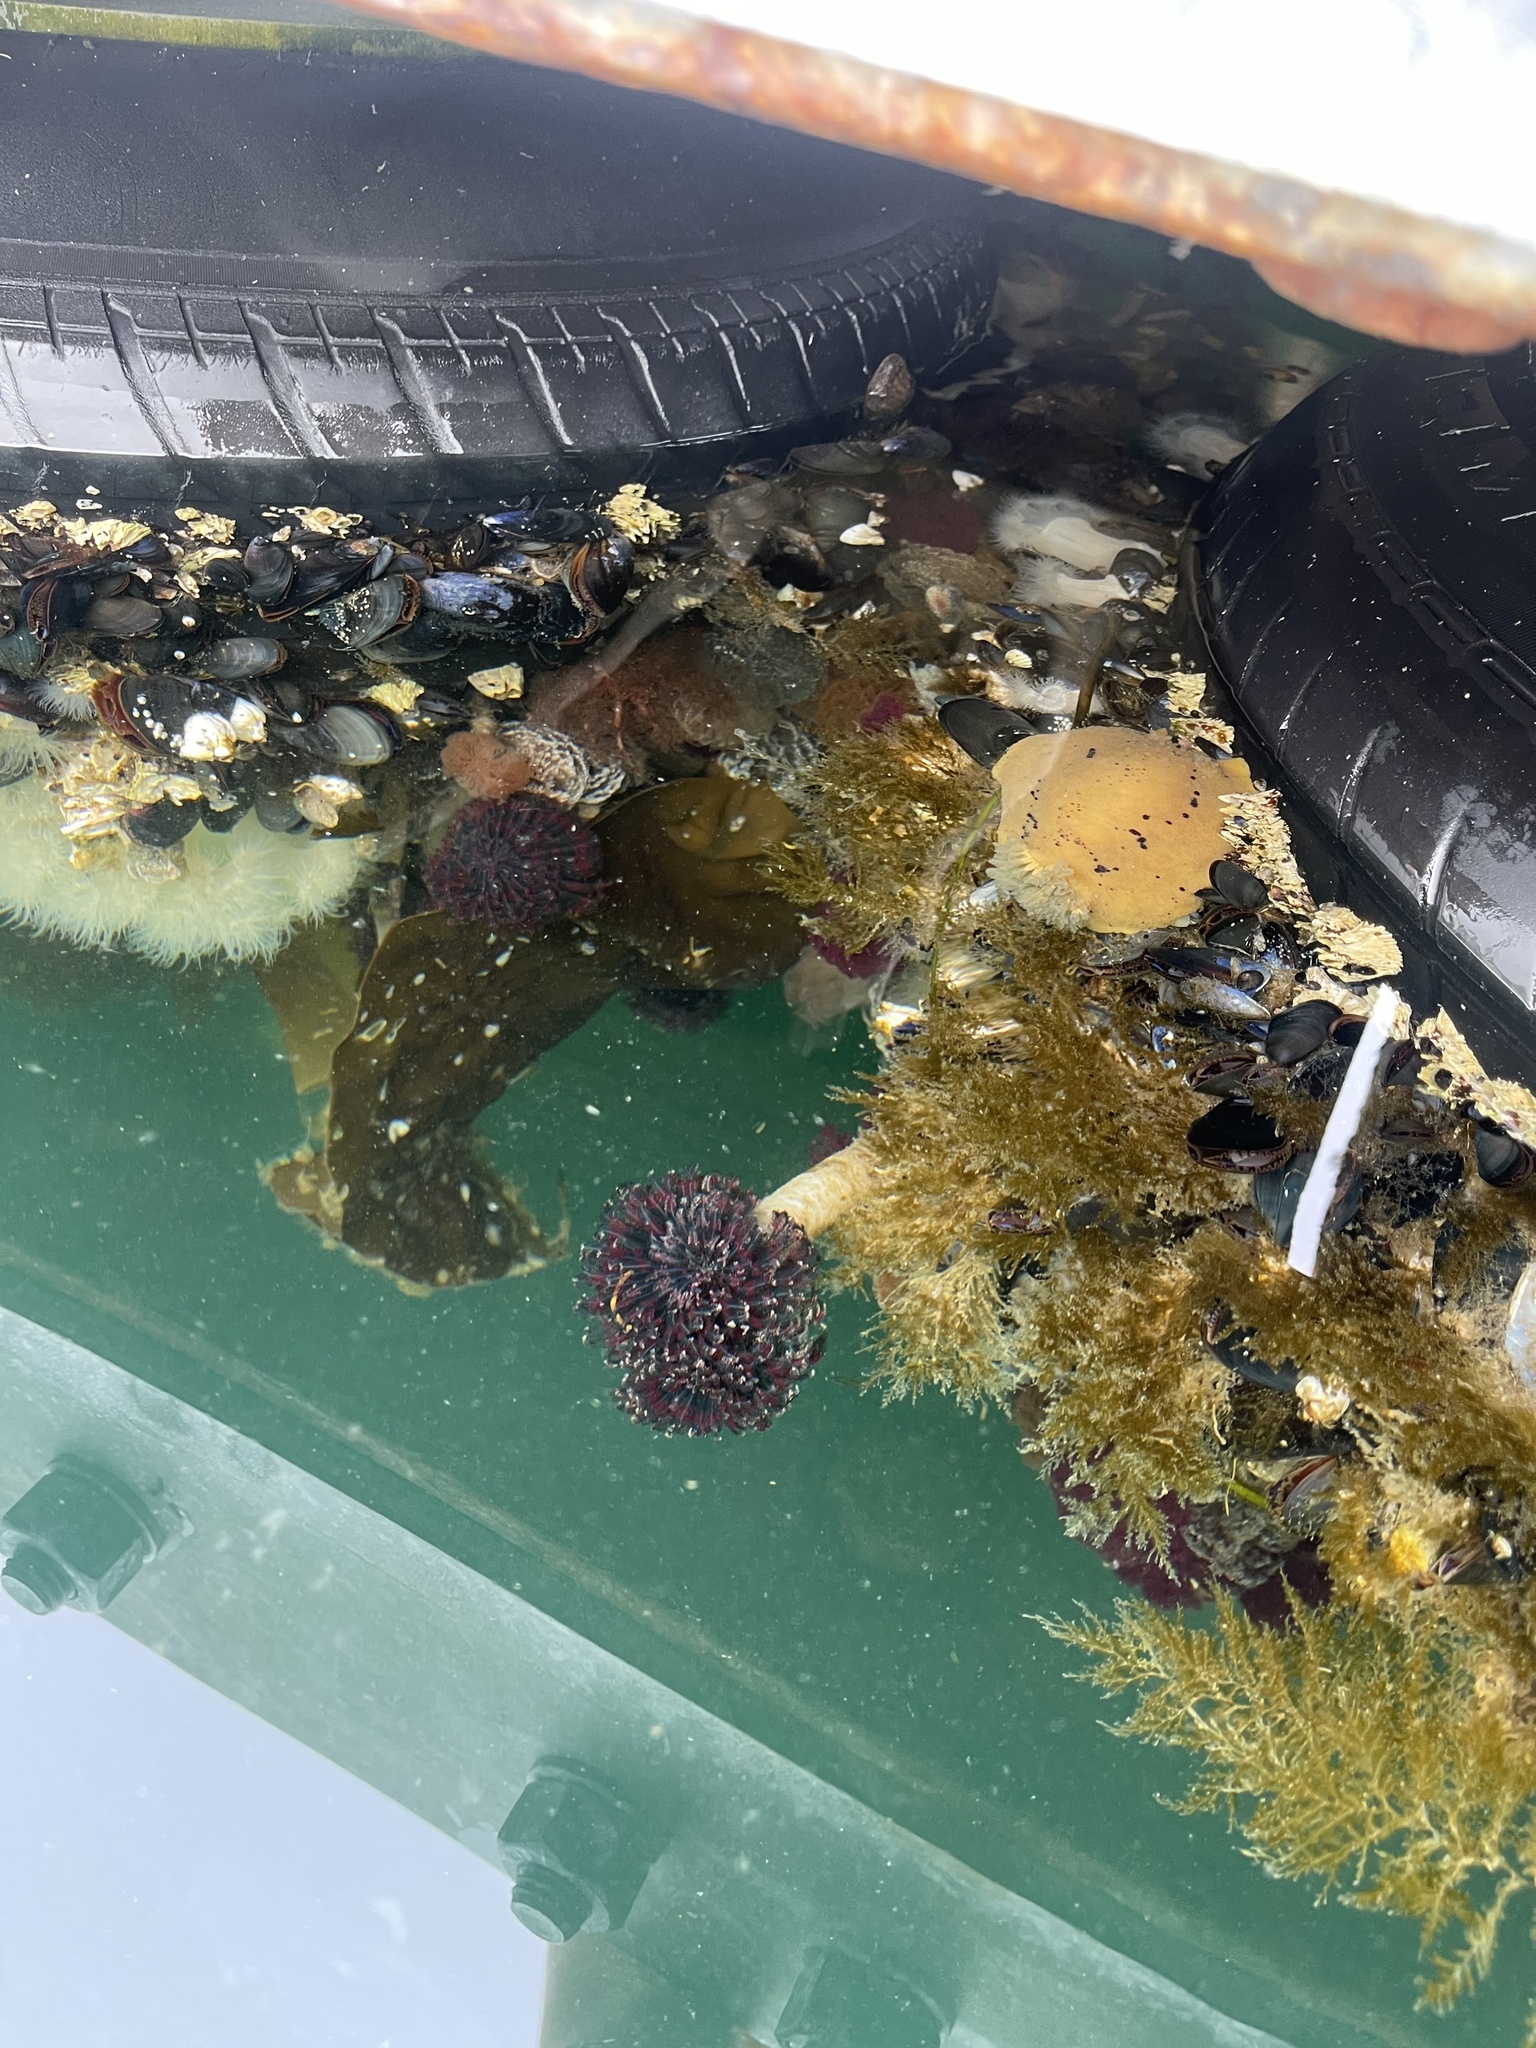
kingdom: Animalia
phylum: Mollusca
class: Gastropoda
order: Nudibranchia
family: Discodorididae
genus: Geitodoris
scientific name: Geitodoris heathi
